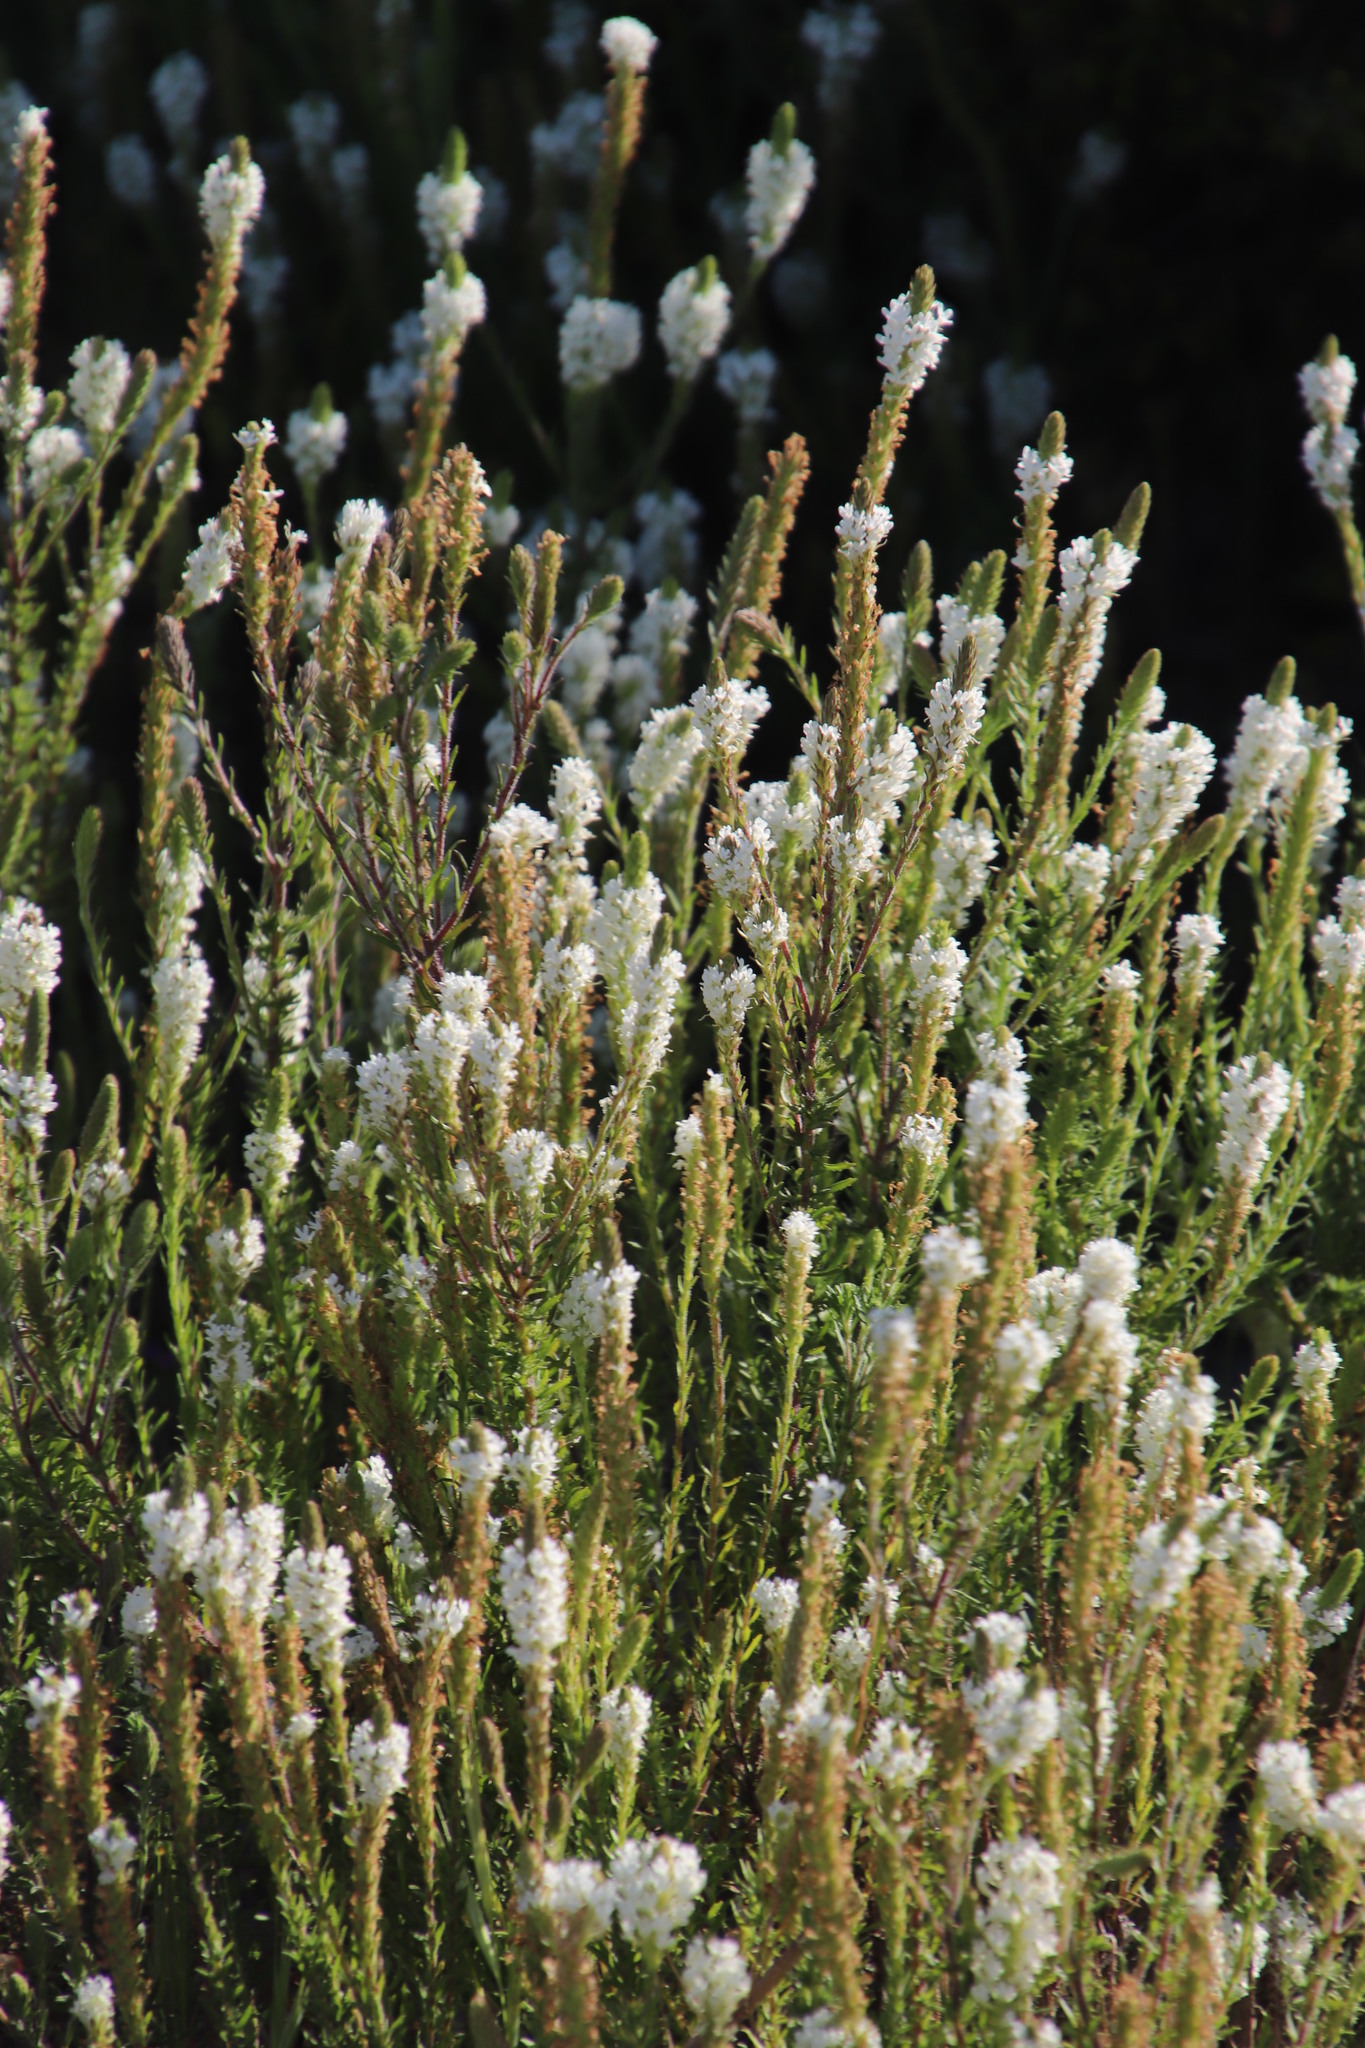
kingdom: Plantae
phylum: Tracheophyta
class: Magnoliopsida
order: Lamiales
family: Scrophulariaceae
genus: Dischisma
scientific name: Dischisma ciliatum
